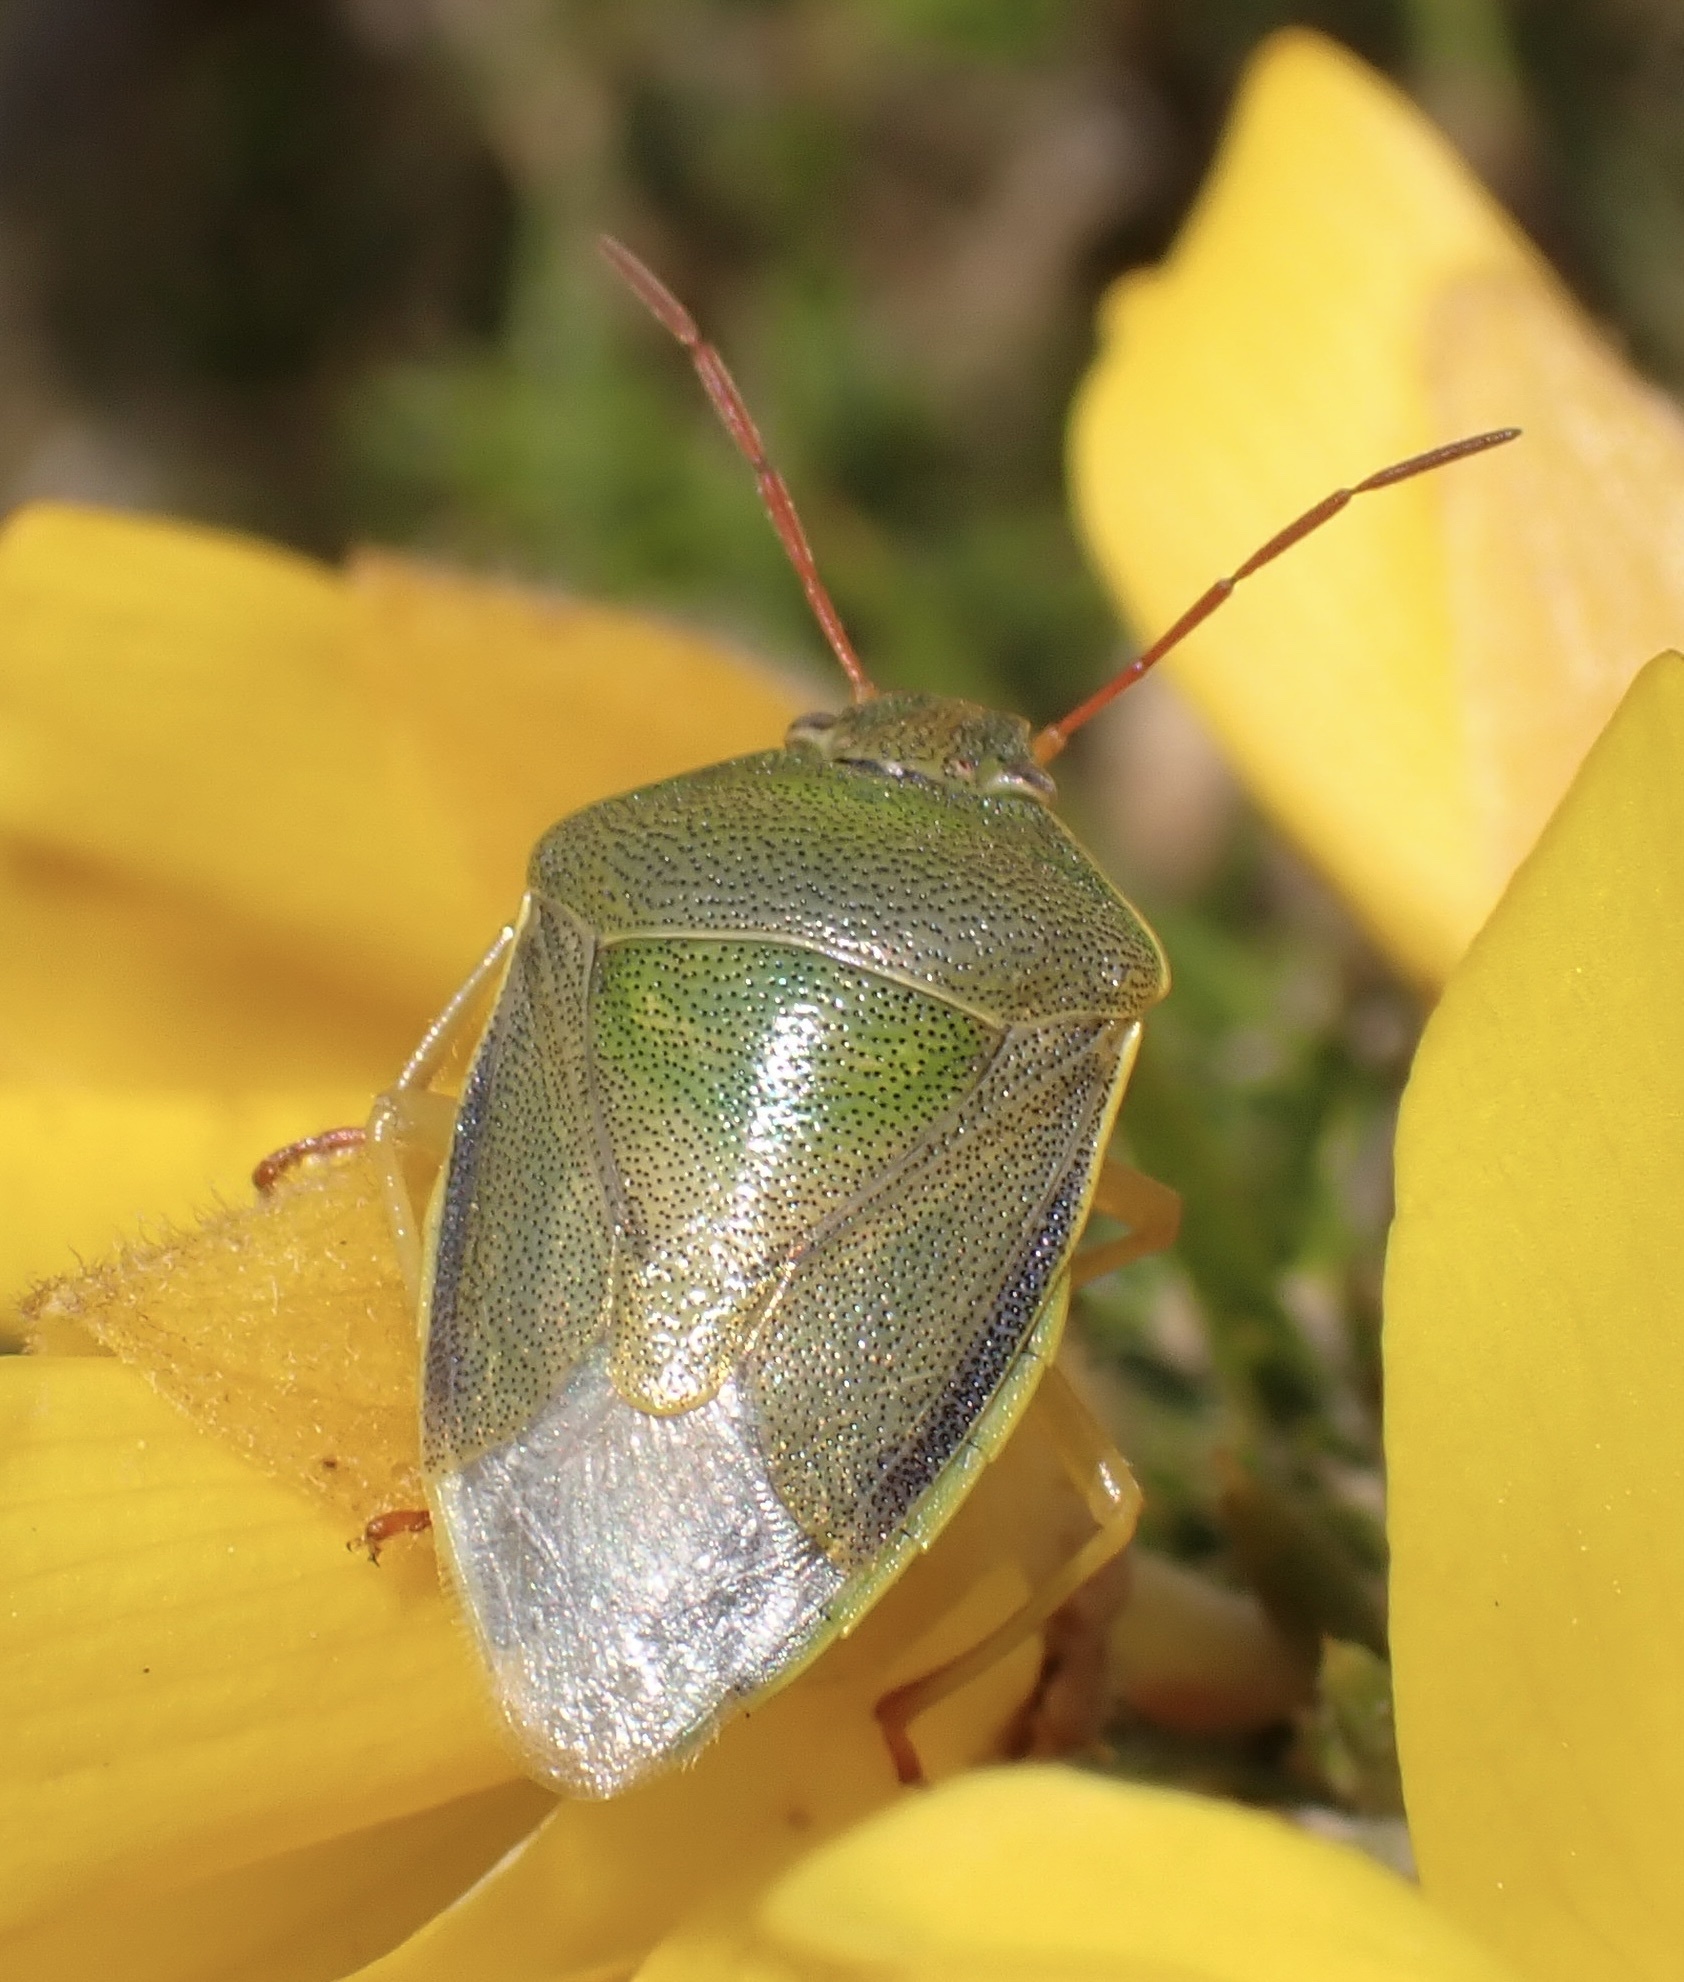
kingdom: Animalia
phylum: Arthropoda
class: Insecta
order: Hemiptera
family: Pentatomidae
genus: Piezodorus
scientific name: Piezodorus lituratus
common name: Stink bug
